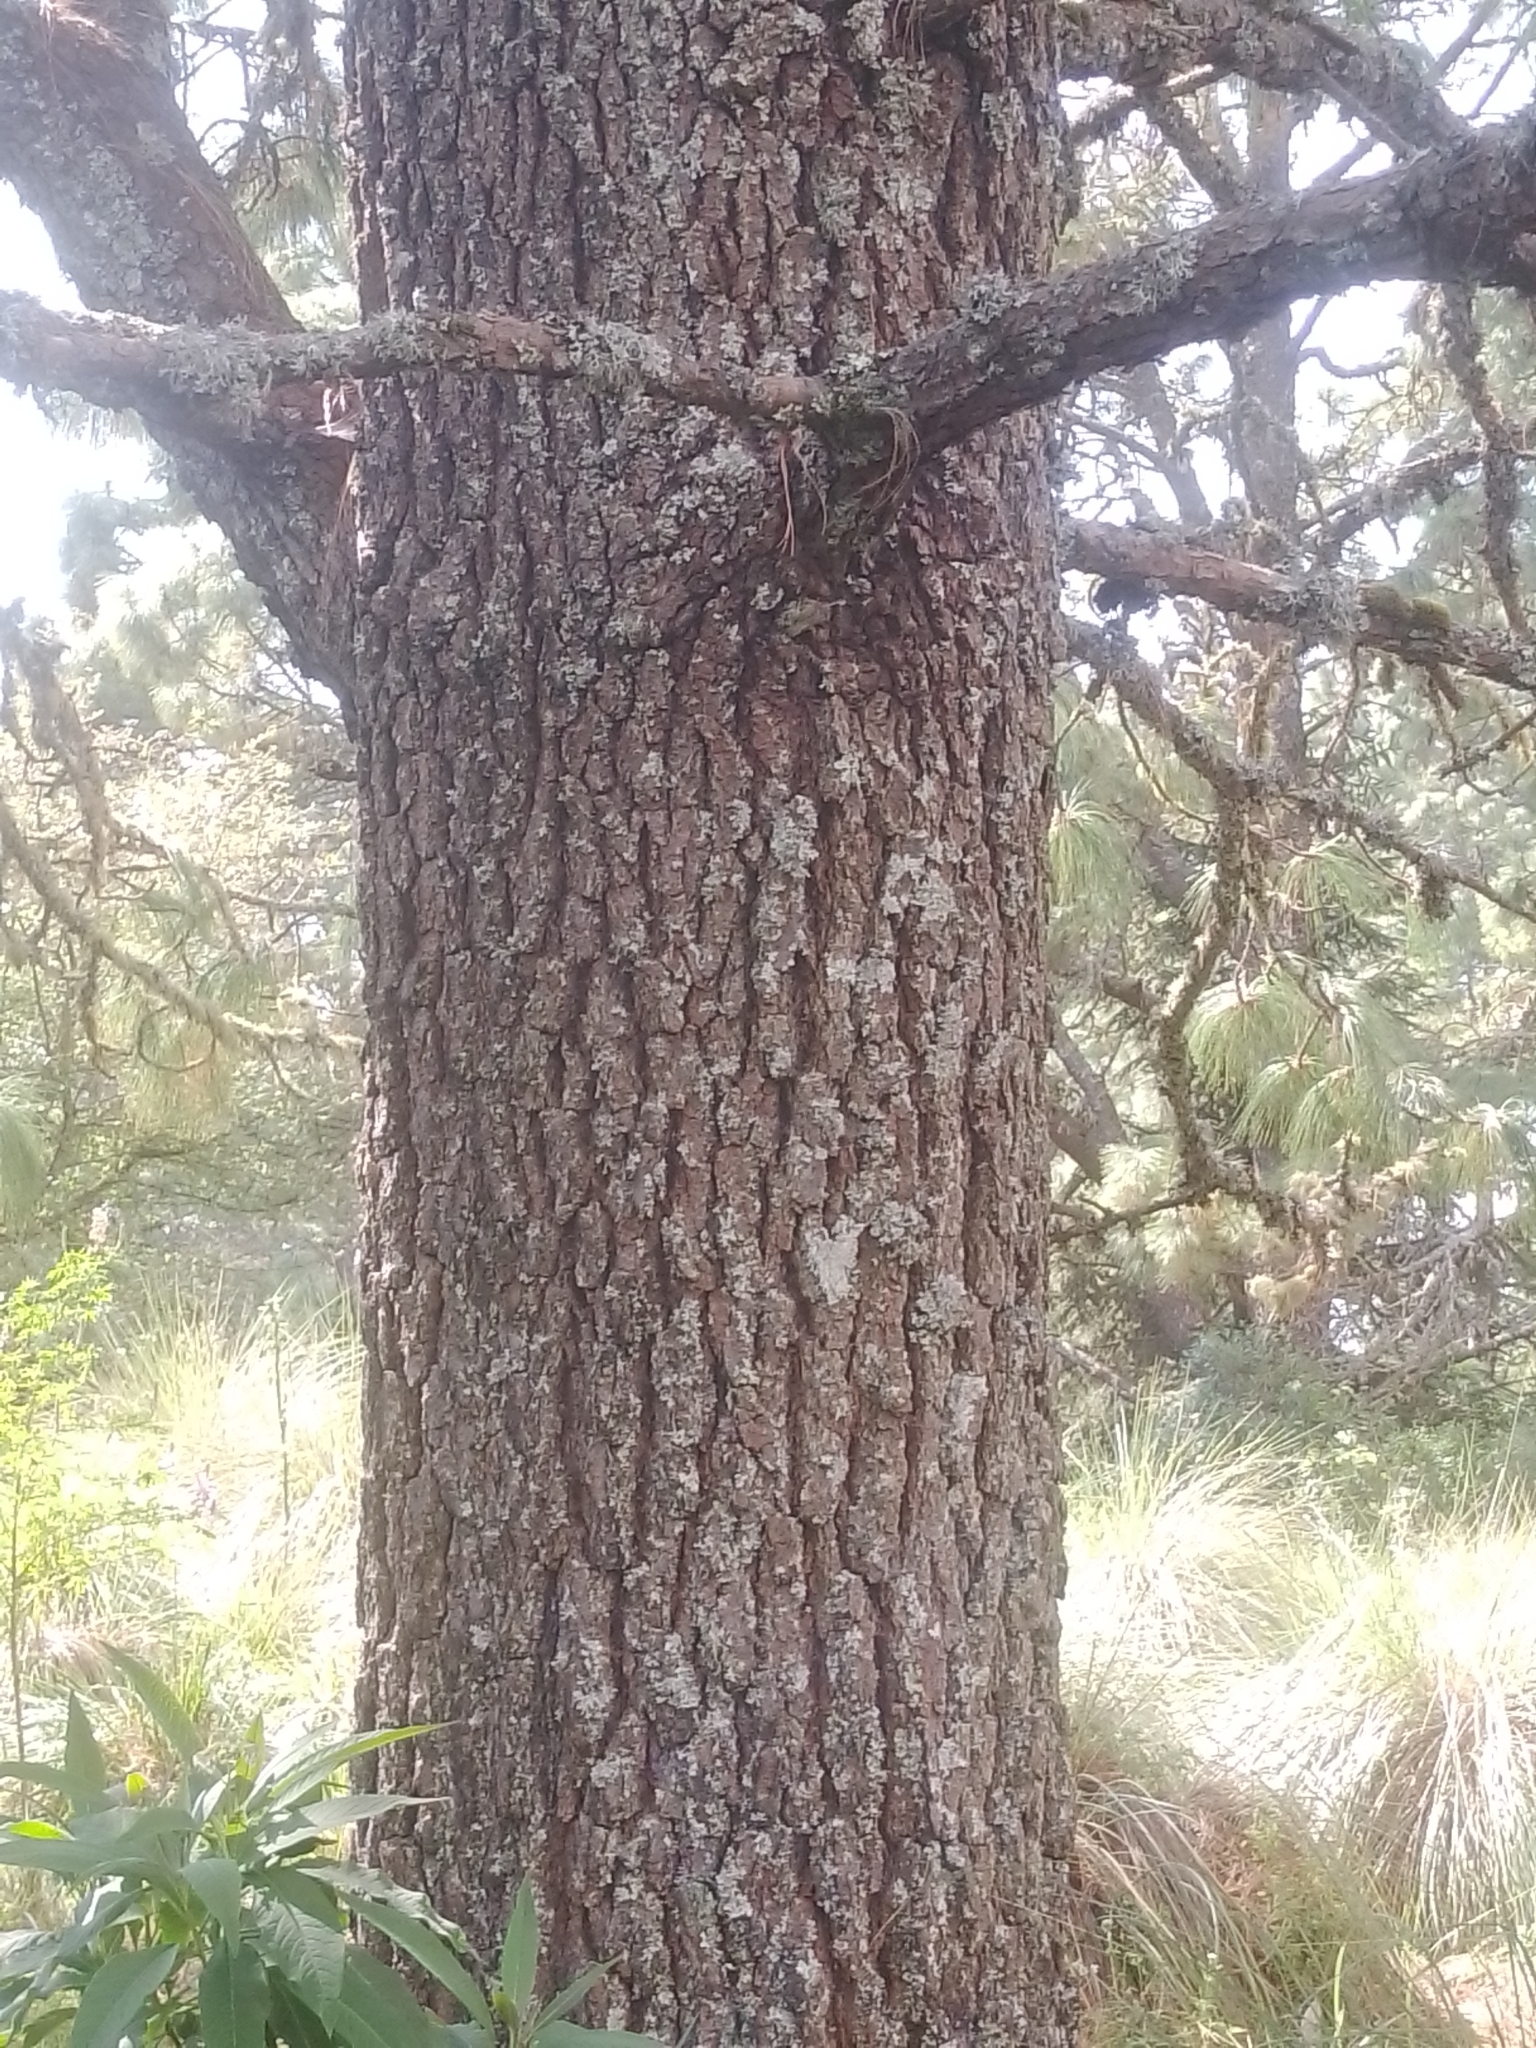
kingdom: Plantae
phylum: Tracheophyta
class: Pinopsida
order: Pinales
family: Pinaceae
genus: Pinus
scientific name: Pinus montezumae
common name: Montezuma pine
